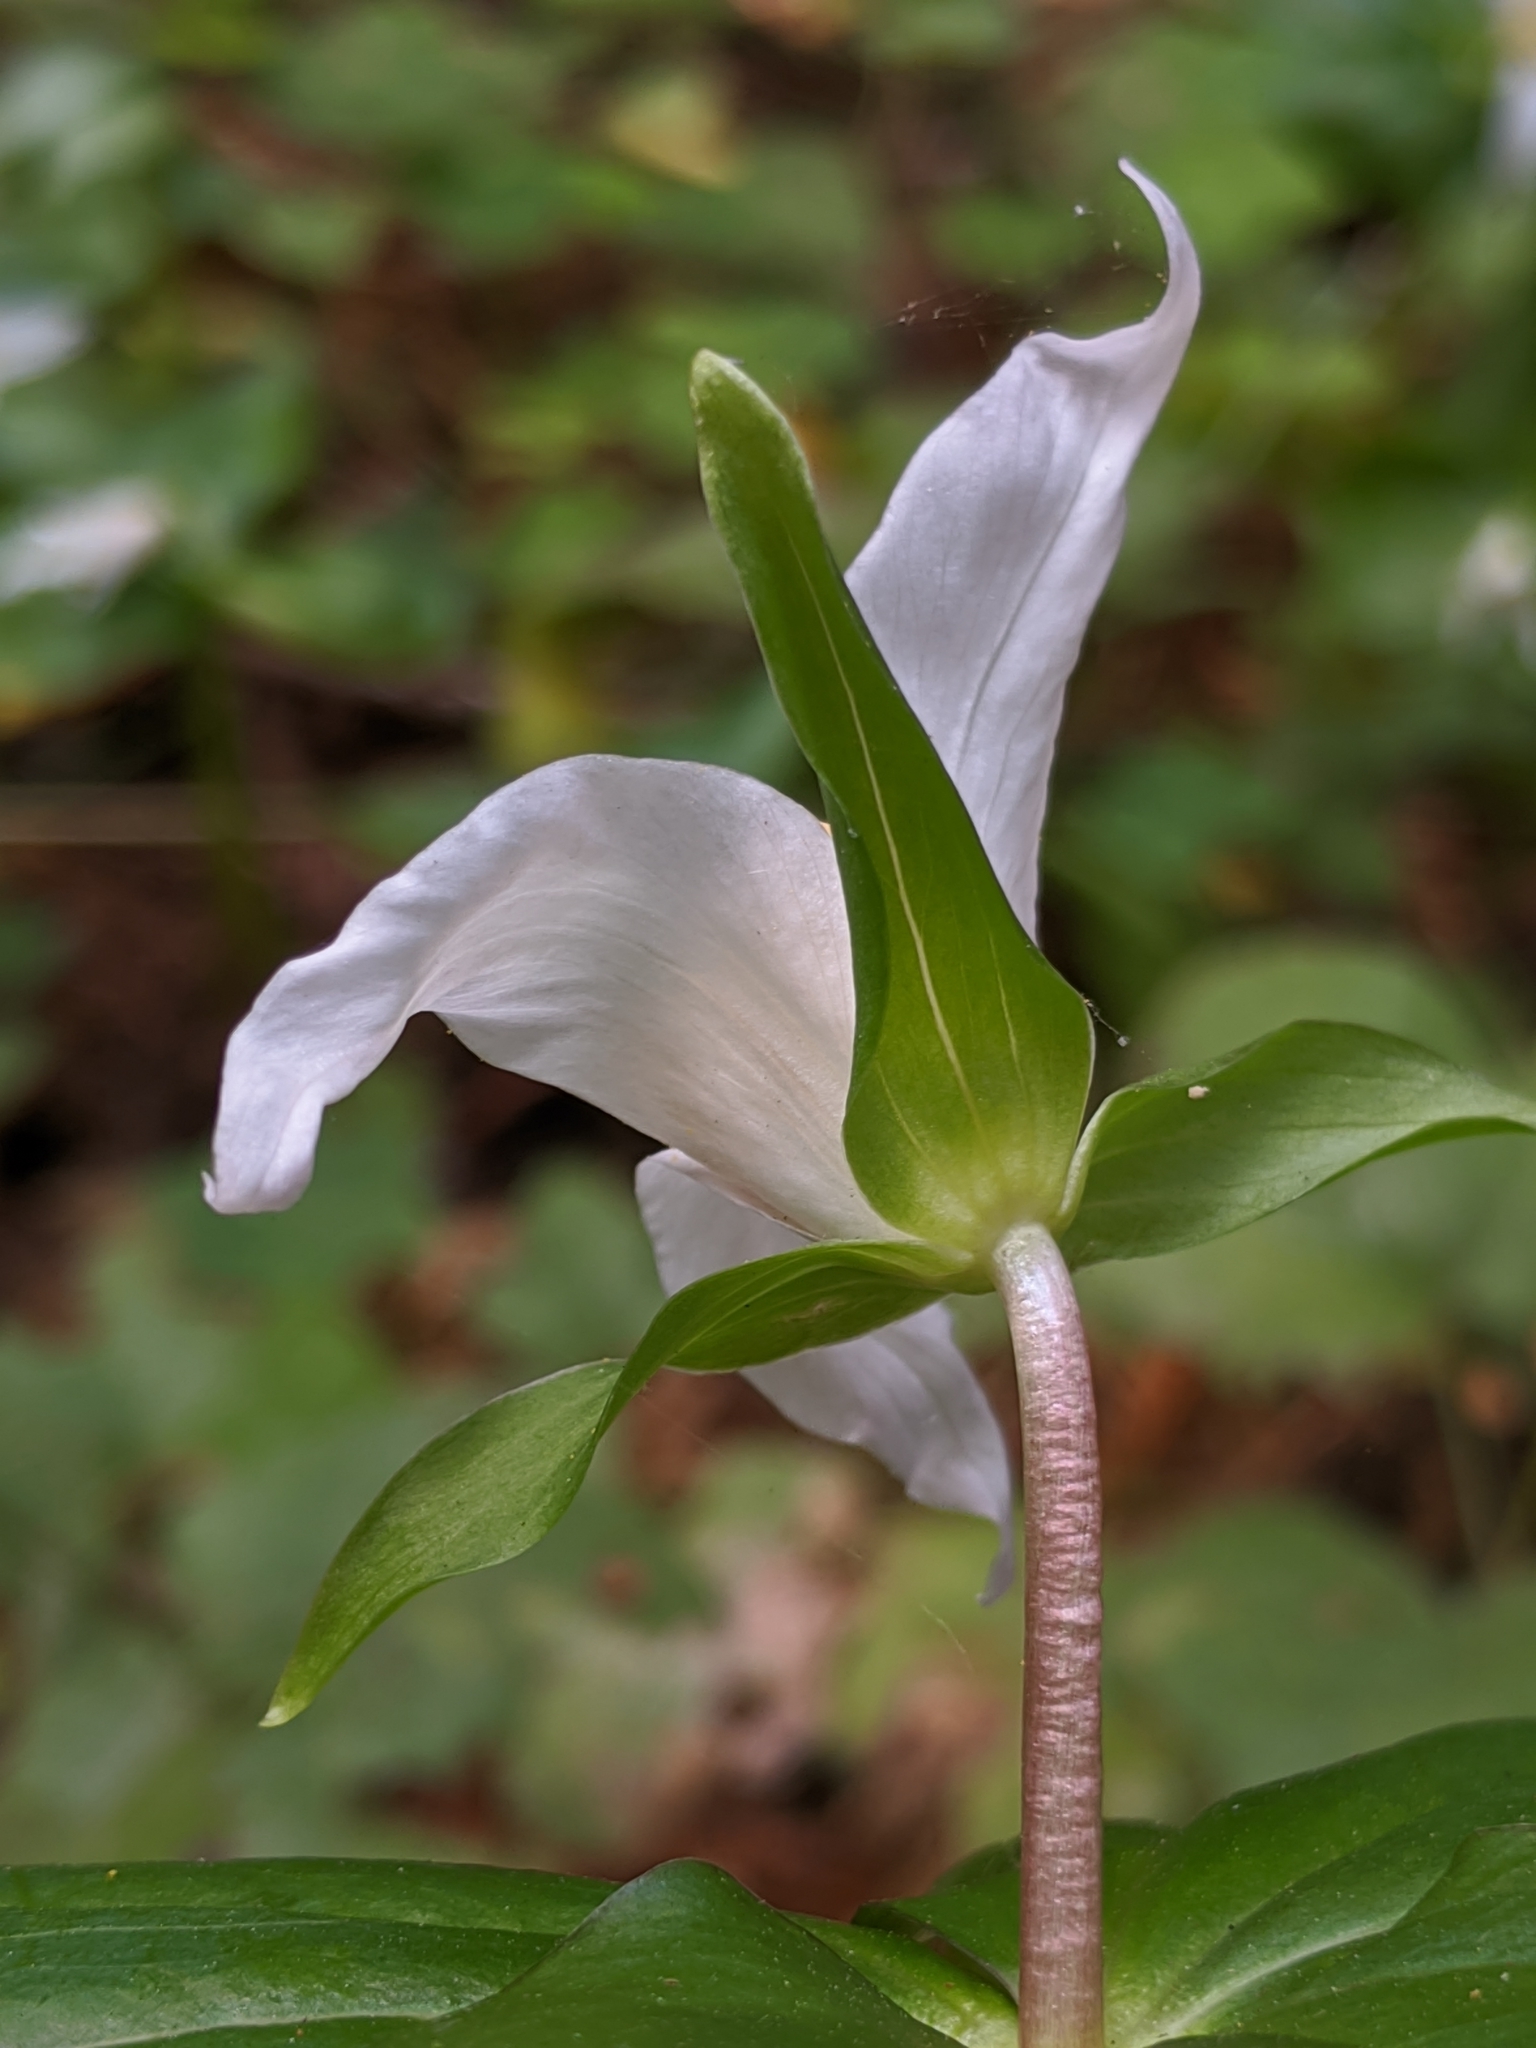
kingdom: Plantae
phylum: Tracheophyta
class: Liliopsida
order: Liliales
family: Melanthiaceae
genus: Trillium
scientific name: Trillium ovatum
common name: Pacific trillium
